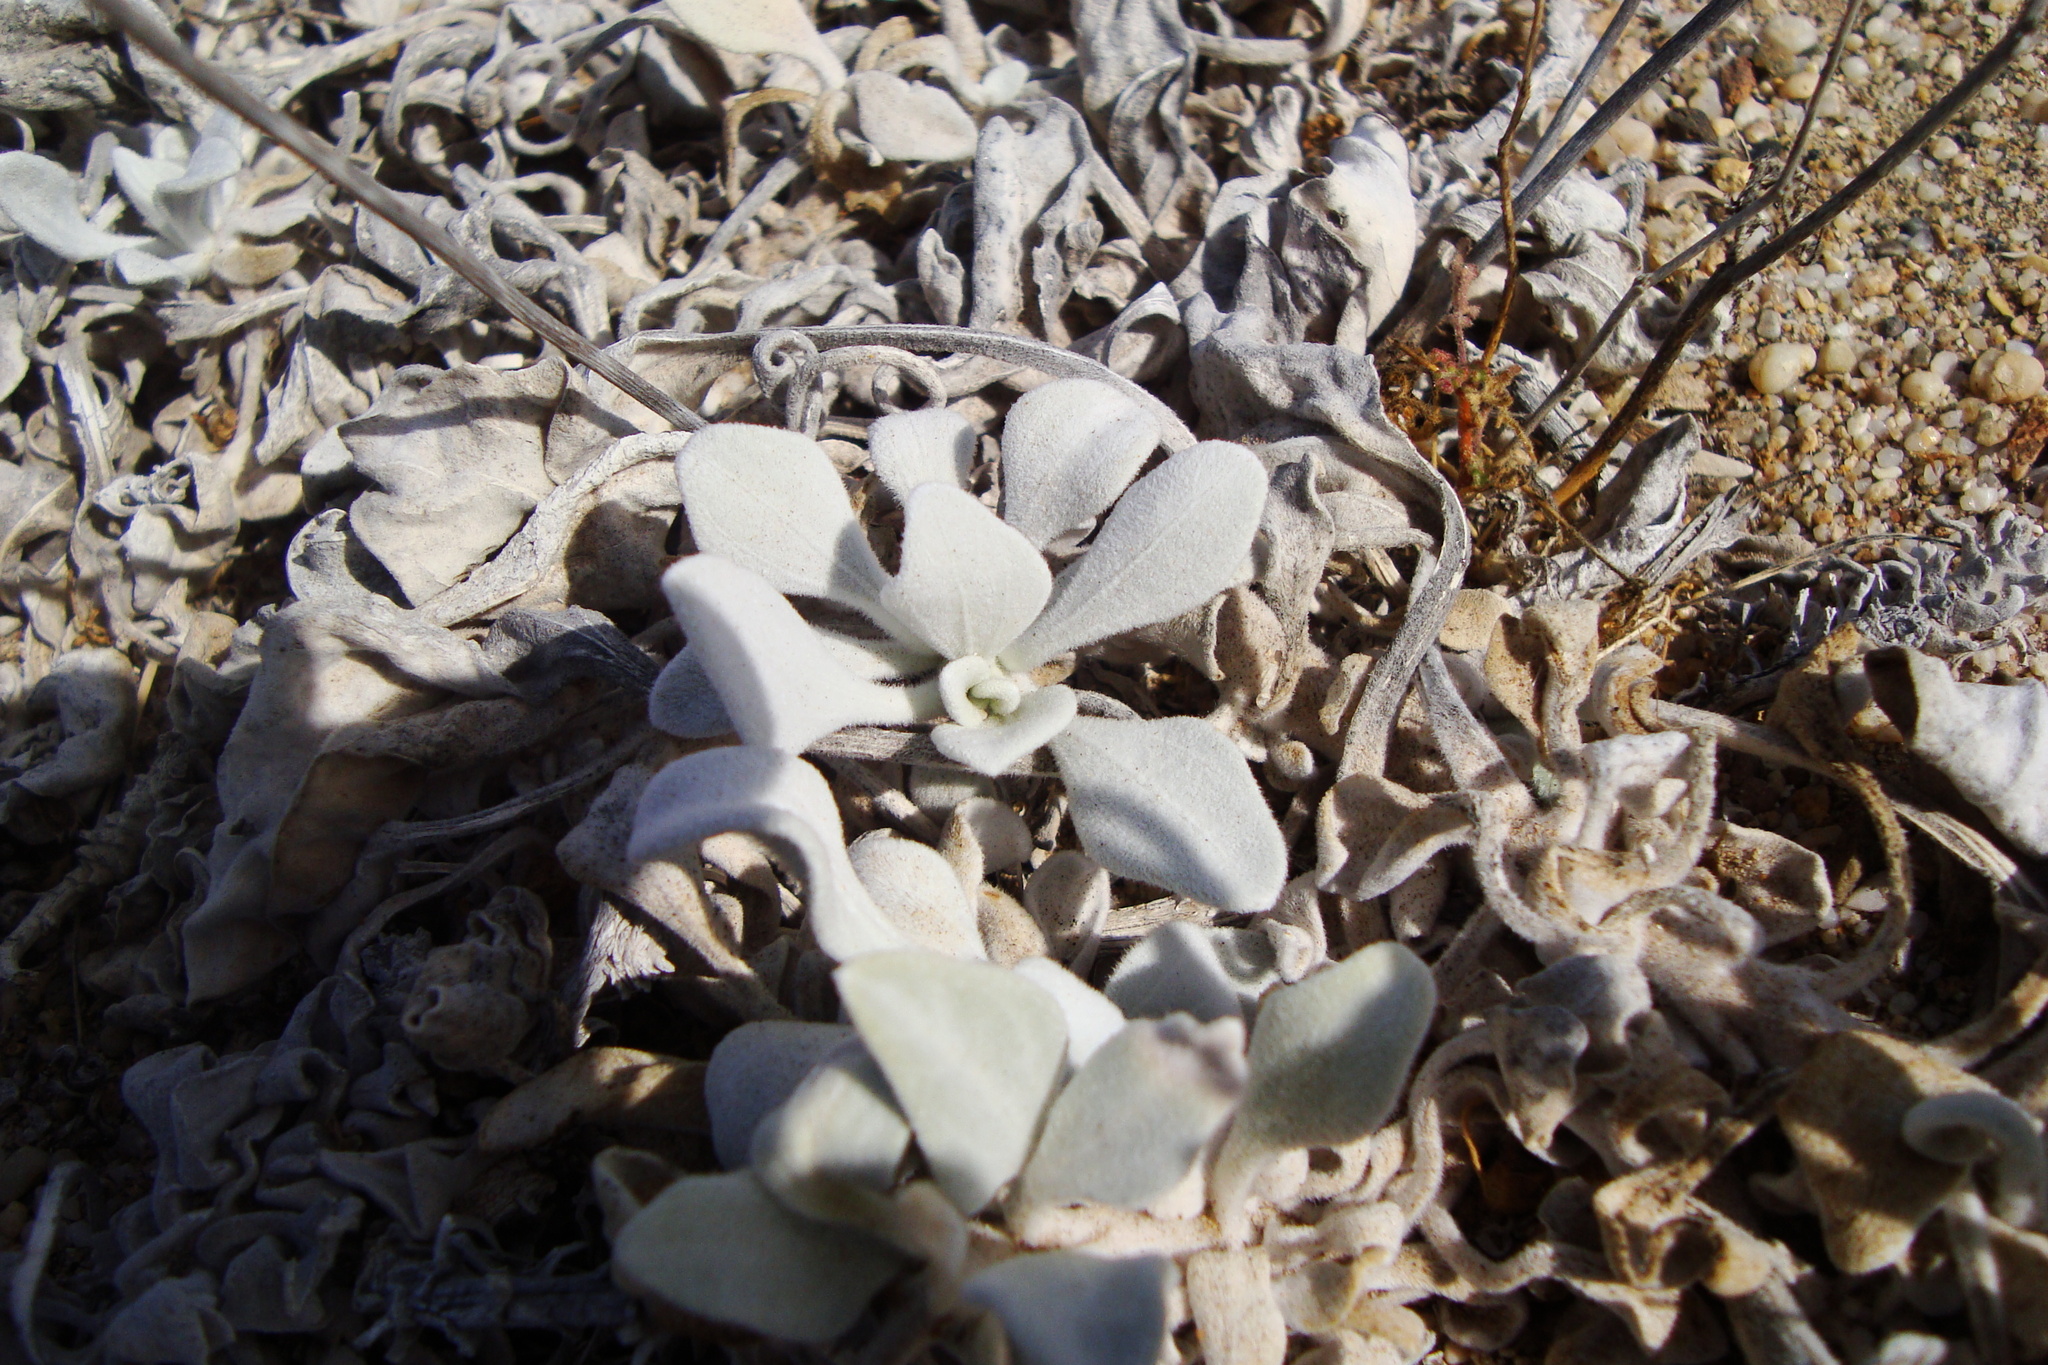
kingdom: Plantae
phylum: Tracheophyta
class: Magnoliopsida
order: Asterales
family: Asteraceae
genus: Encelia
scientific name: Encelia canescens
